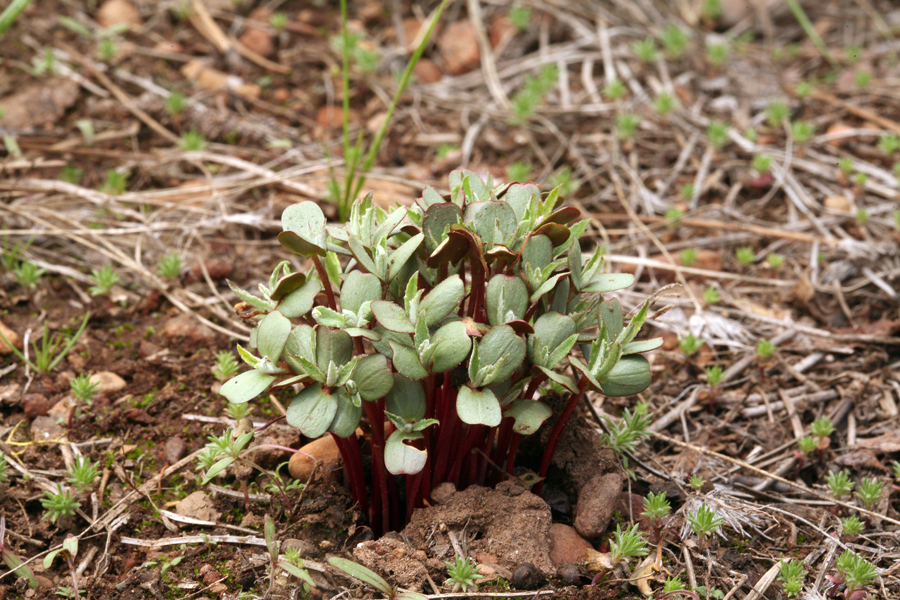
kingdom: Plantae
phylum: Tracheophyta
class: Magnoliopsida
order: Rosales
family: Rosaceae
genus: Purshia
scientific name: Purshia tridentata
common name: Antelope bitterbrush
